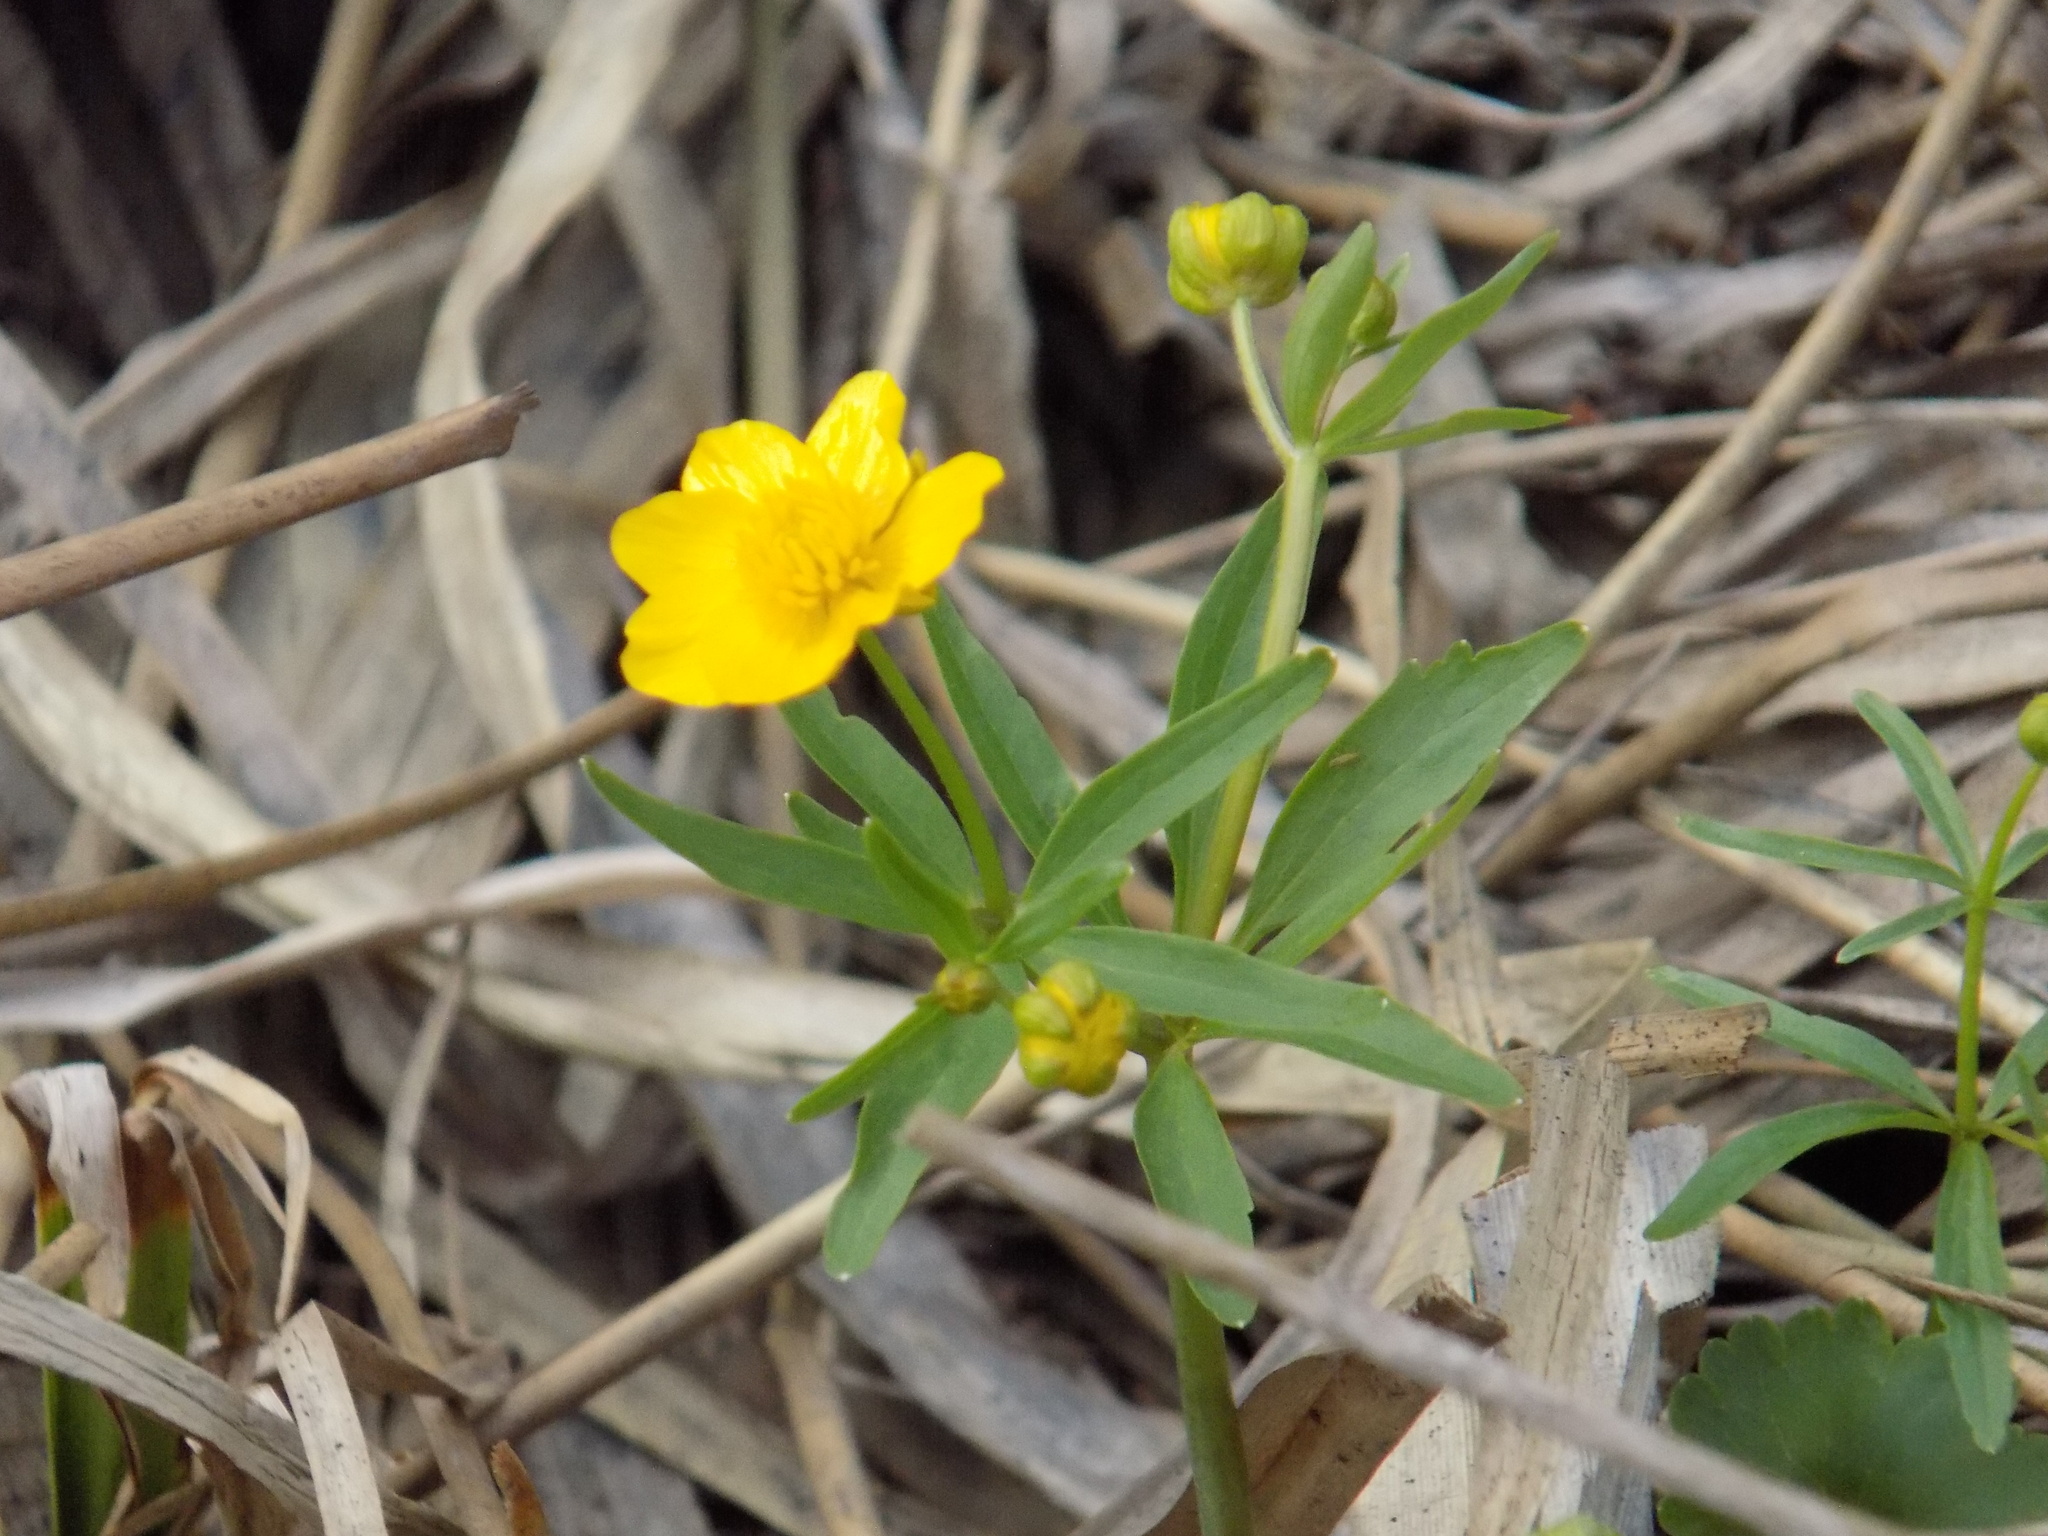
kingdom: Plantae
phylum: Tracheophyta
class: Magnoliopsida
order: Ranunculales
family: Ranunculaceae
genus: Ranunculus
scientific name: Ranunculus monophyllus
